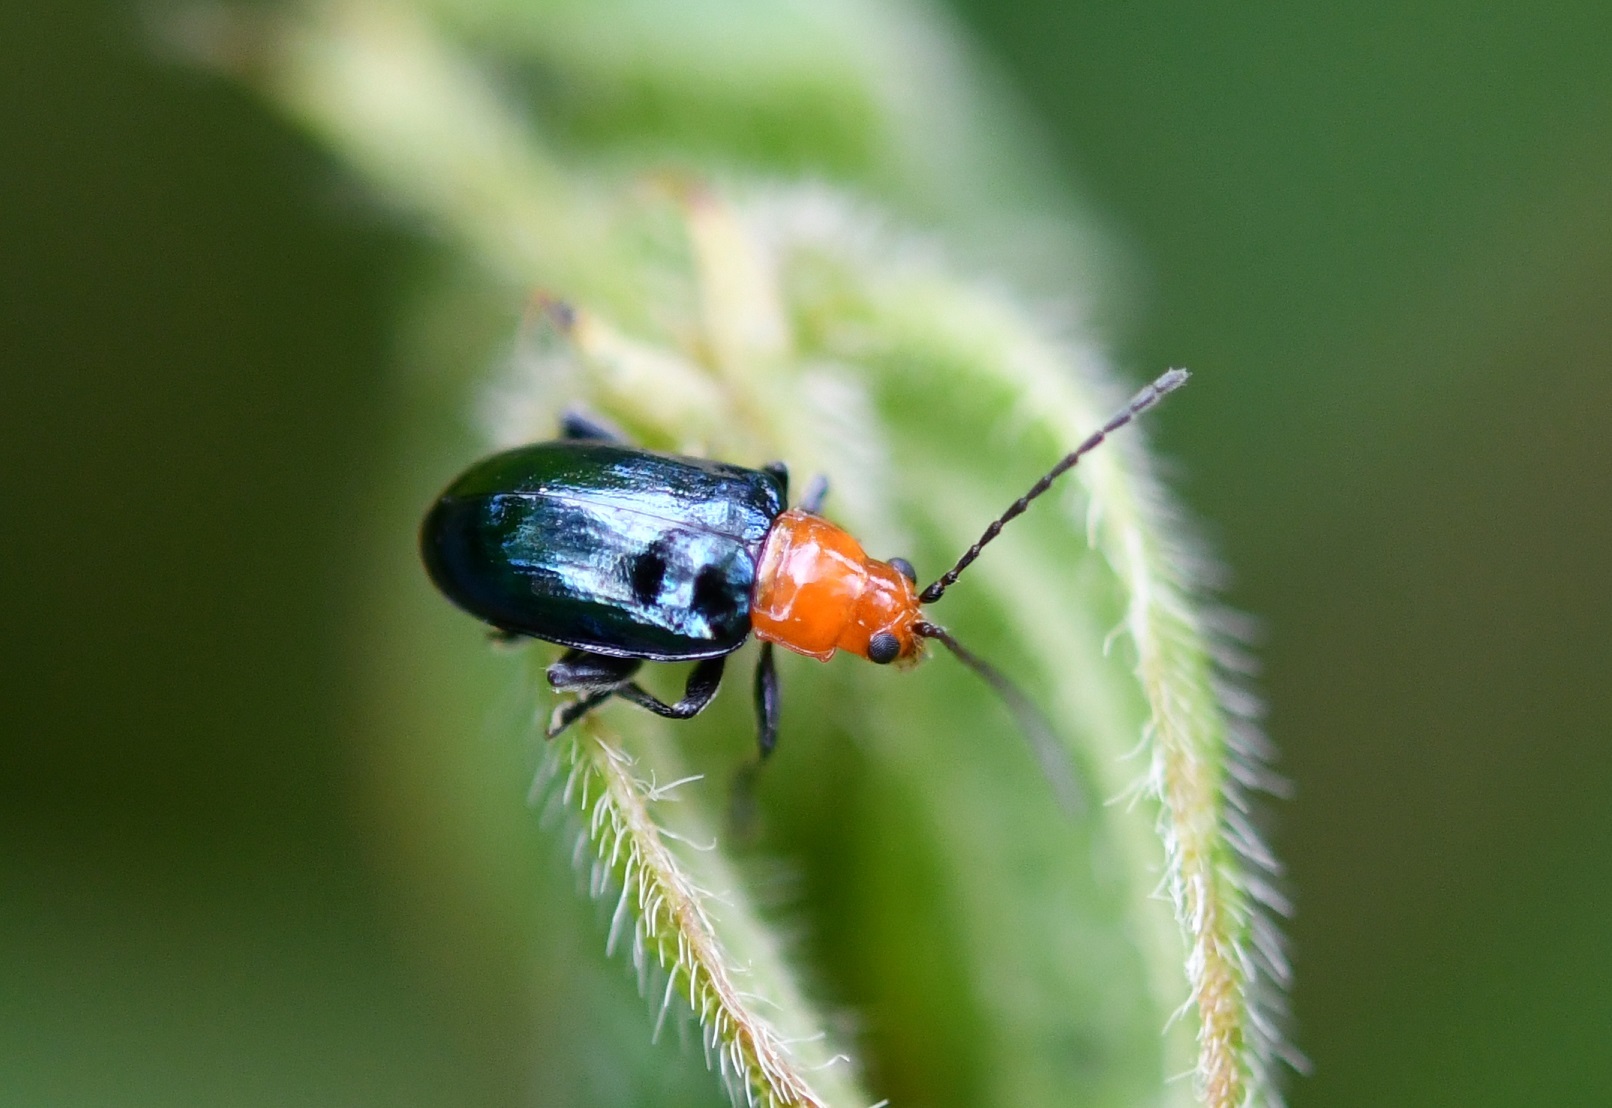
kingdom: Animalia
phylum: Arthropoda
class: Insecta
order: Coleoptera
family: Chrysomelidae
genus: Diphaulaca
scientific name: Diphaulaca wagneri
